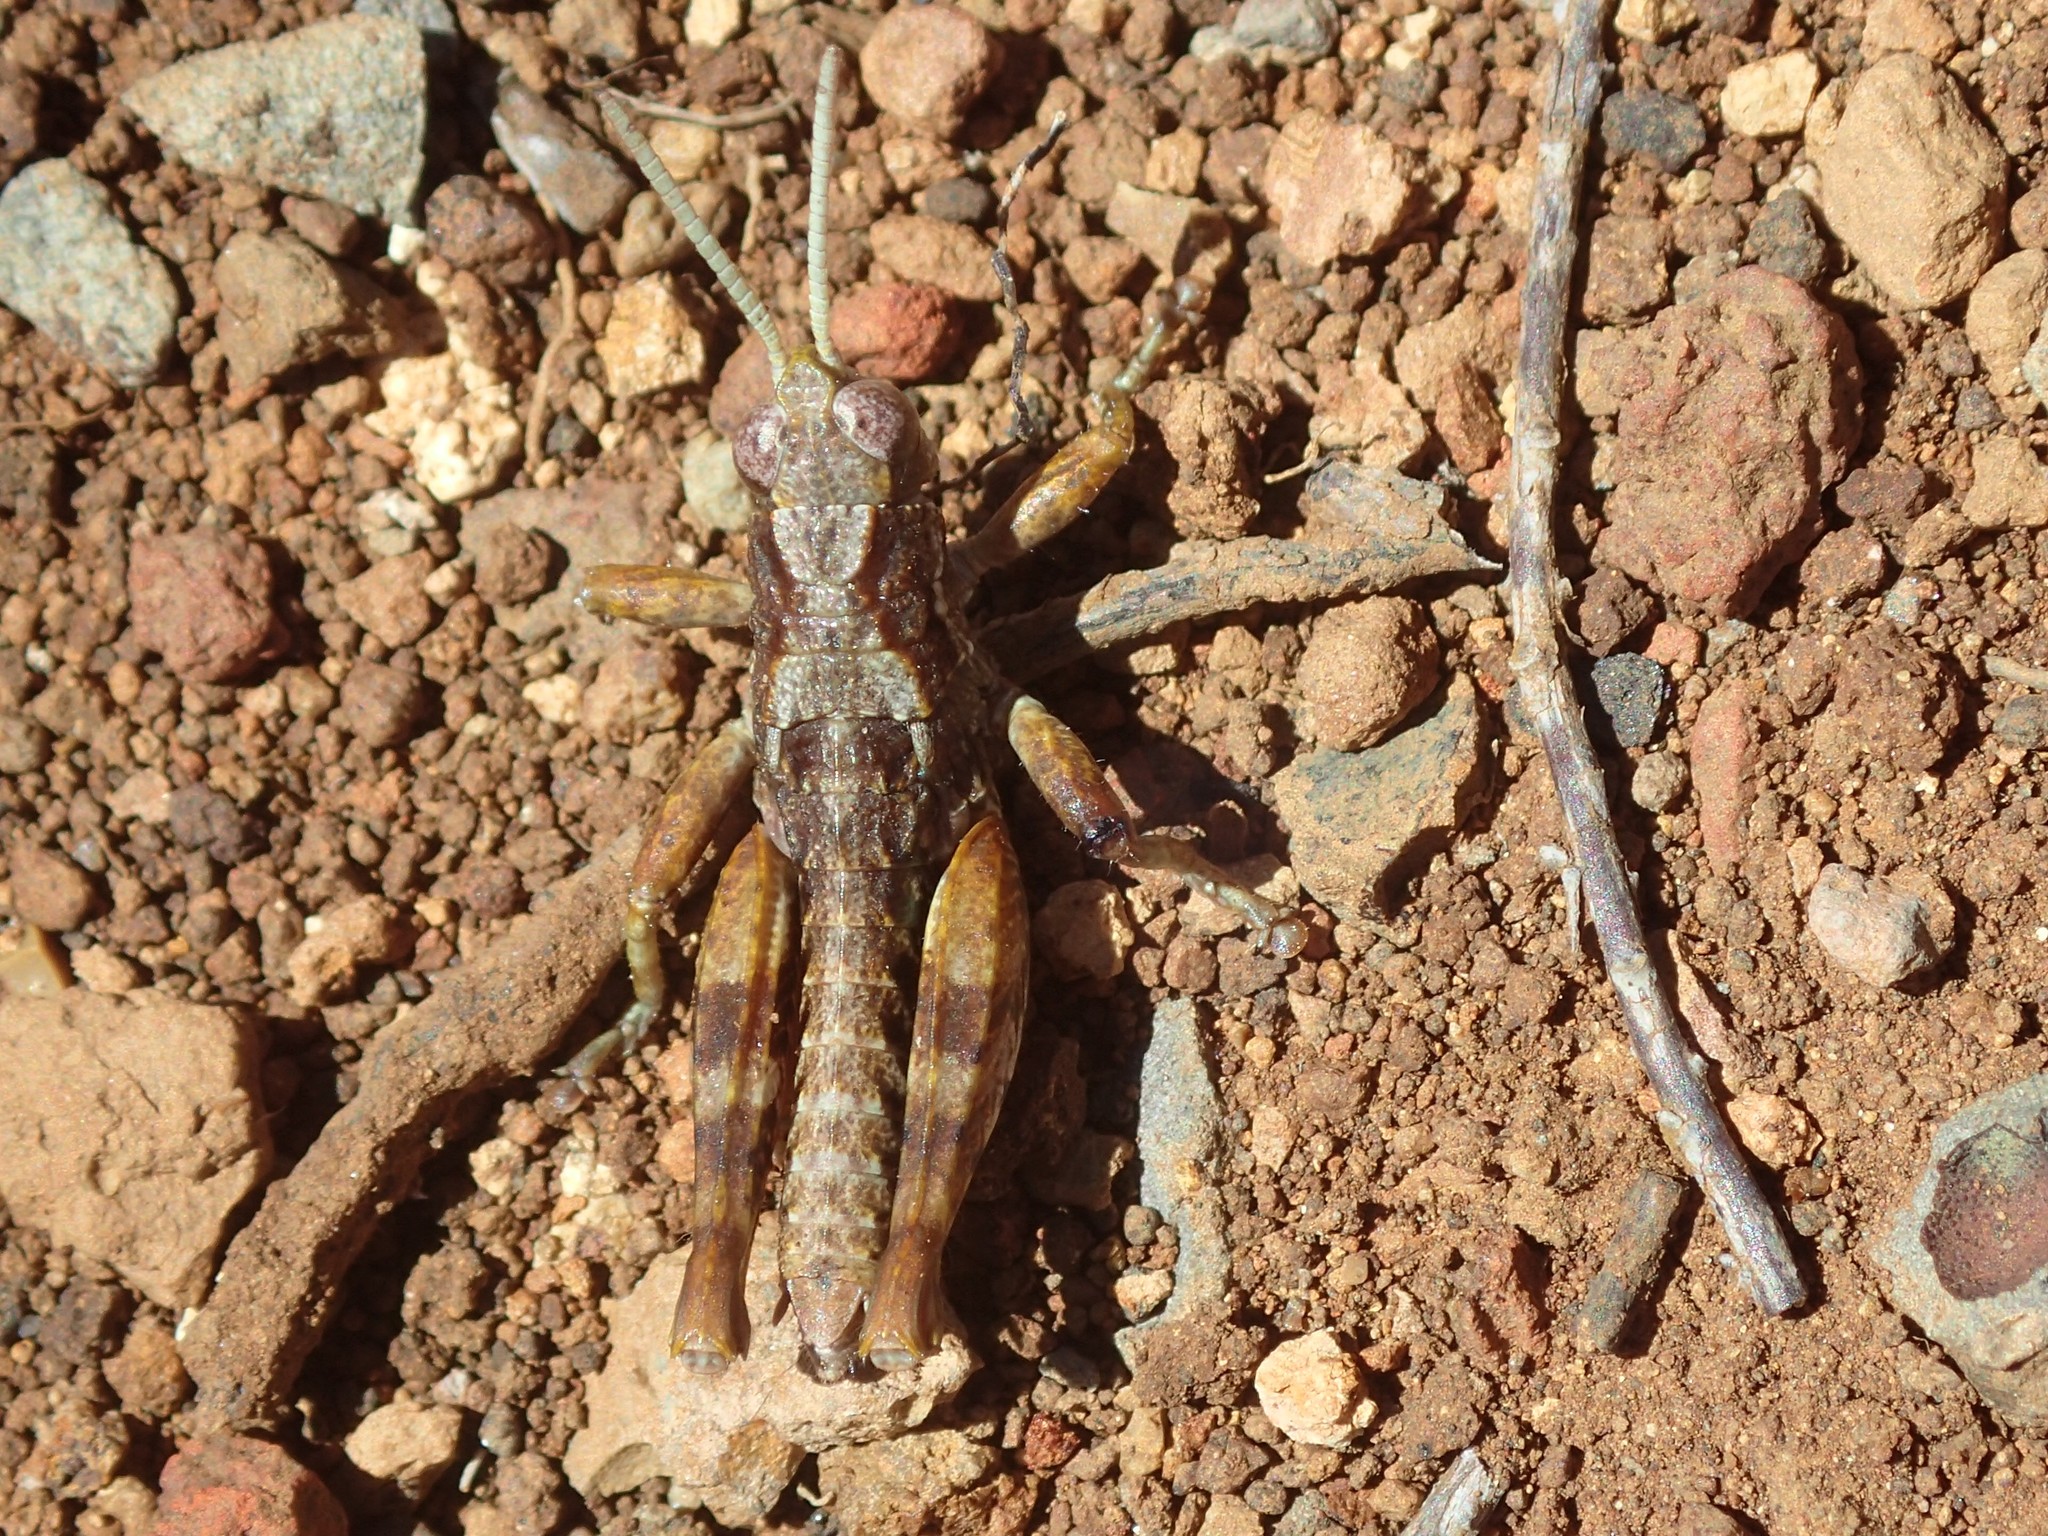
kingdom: Animalia
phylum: Arthropoda
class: Insecta
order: Orthoptera
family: Acrididae
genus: Tasmaniacris
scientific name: Tasmaniacris tasmaniensis
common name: Tasmanian grasshopper
